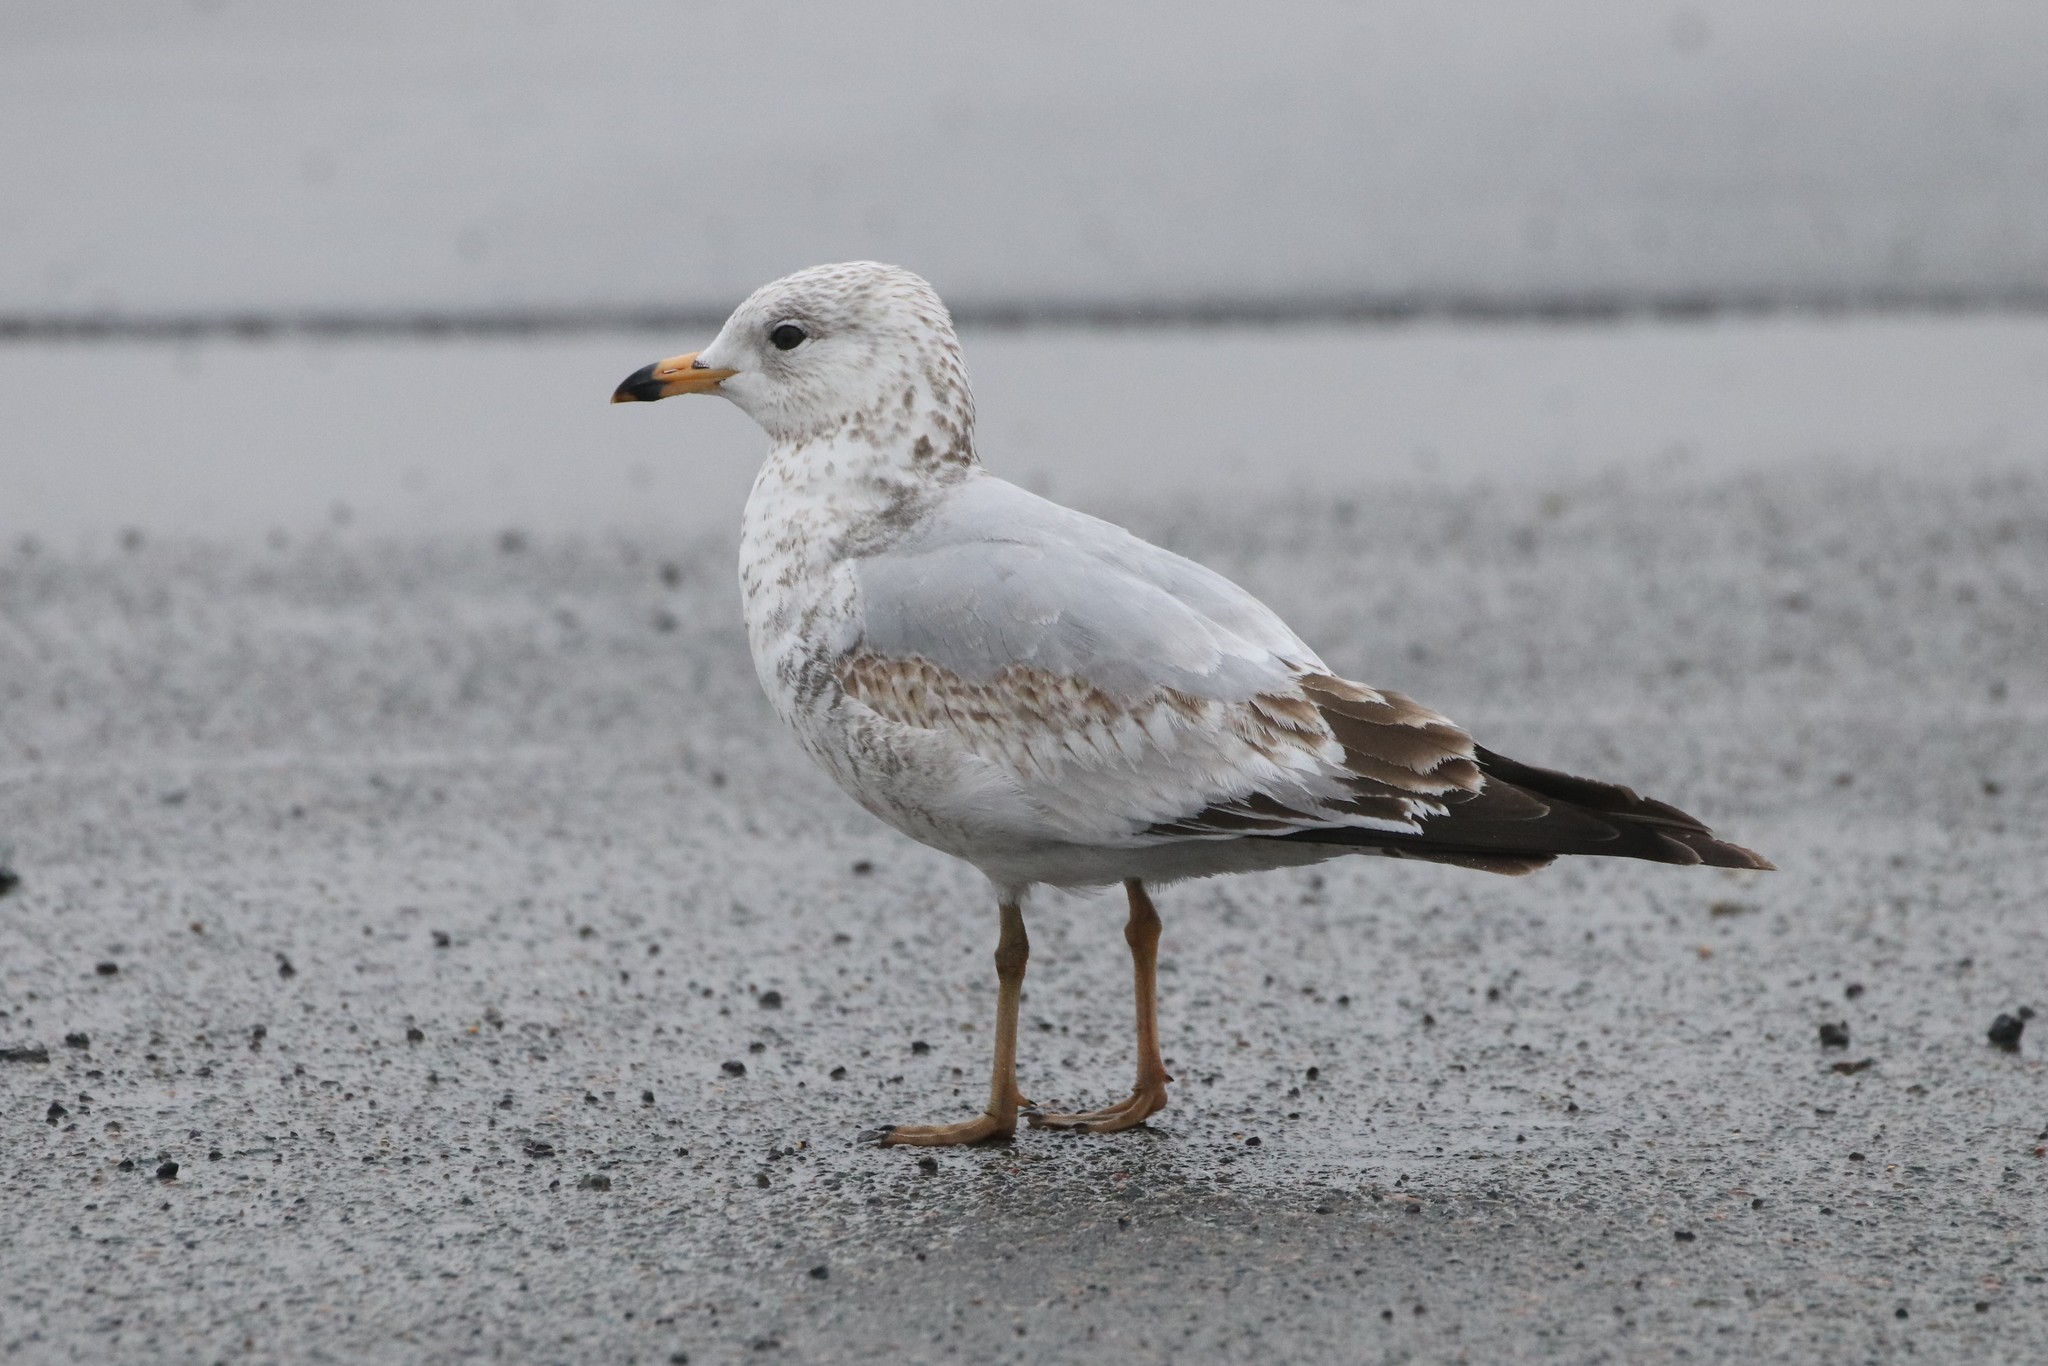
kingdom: Animalia
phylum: Chordata
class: Aves
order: Charadriiformes
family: Laridae
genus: Larus
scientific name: Larus delawarensis
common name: Ring-billed gull
